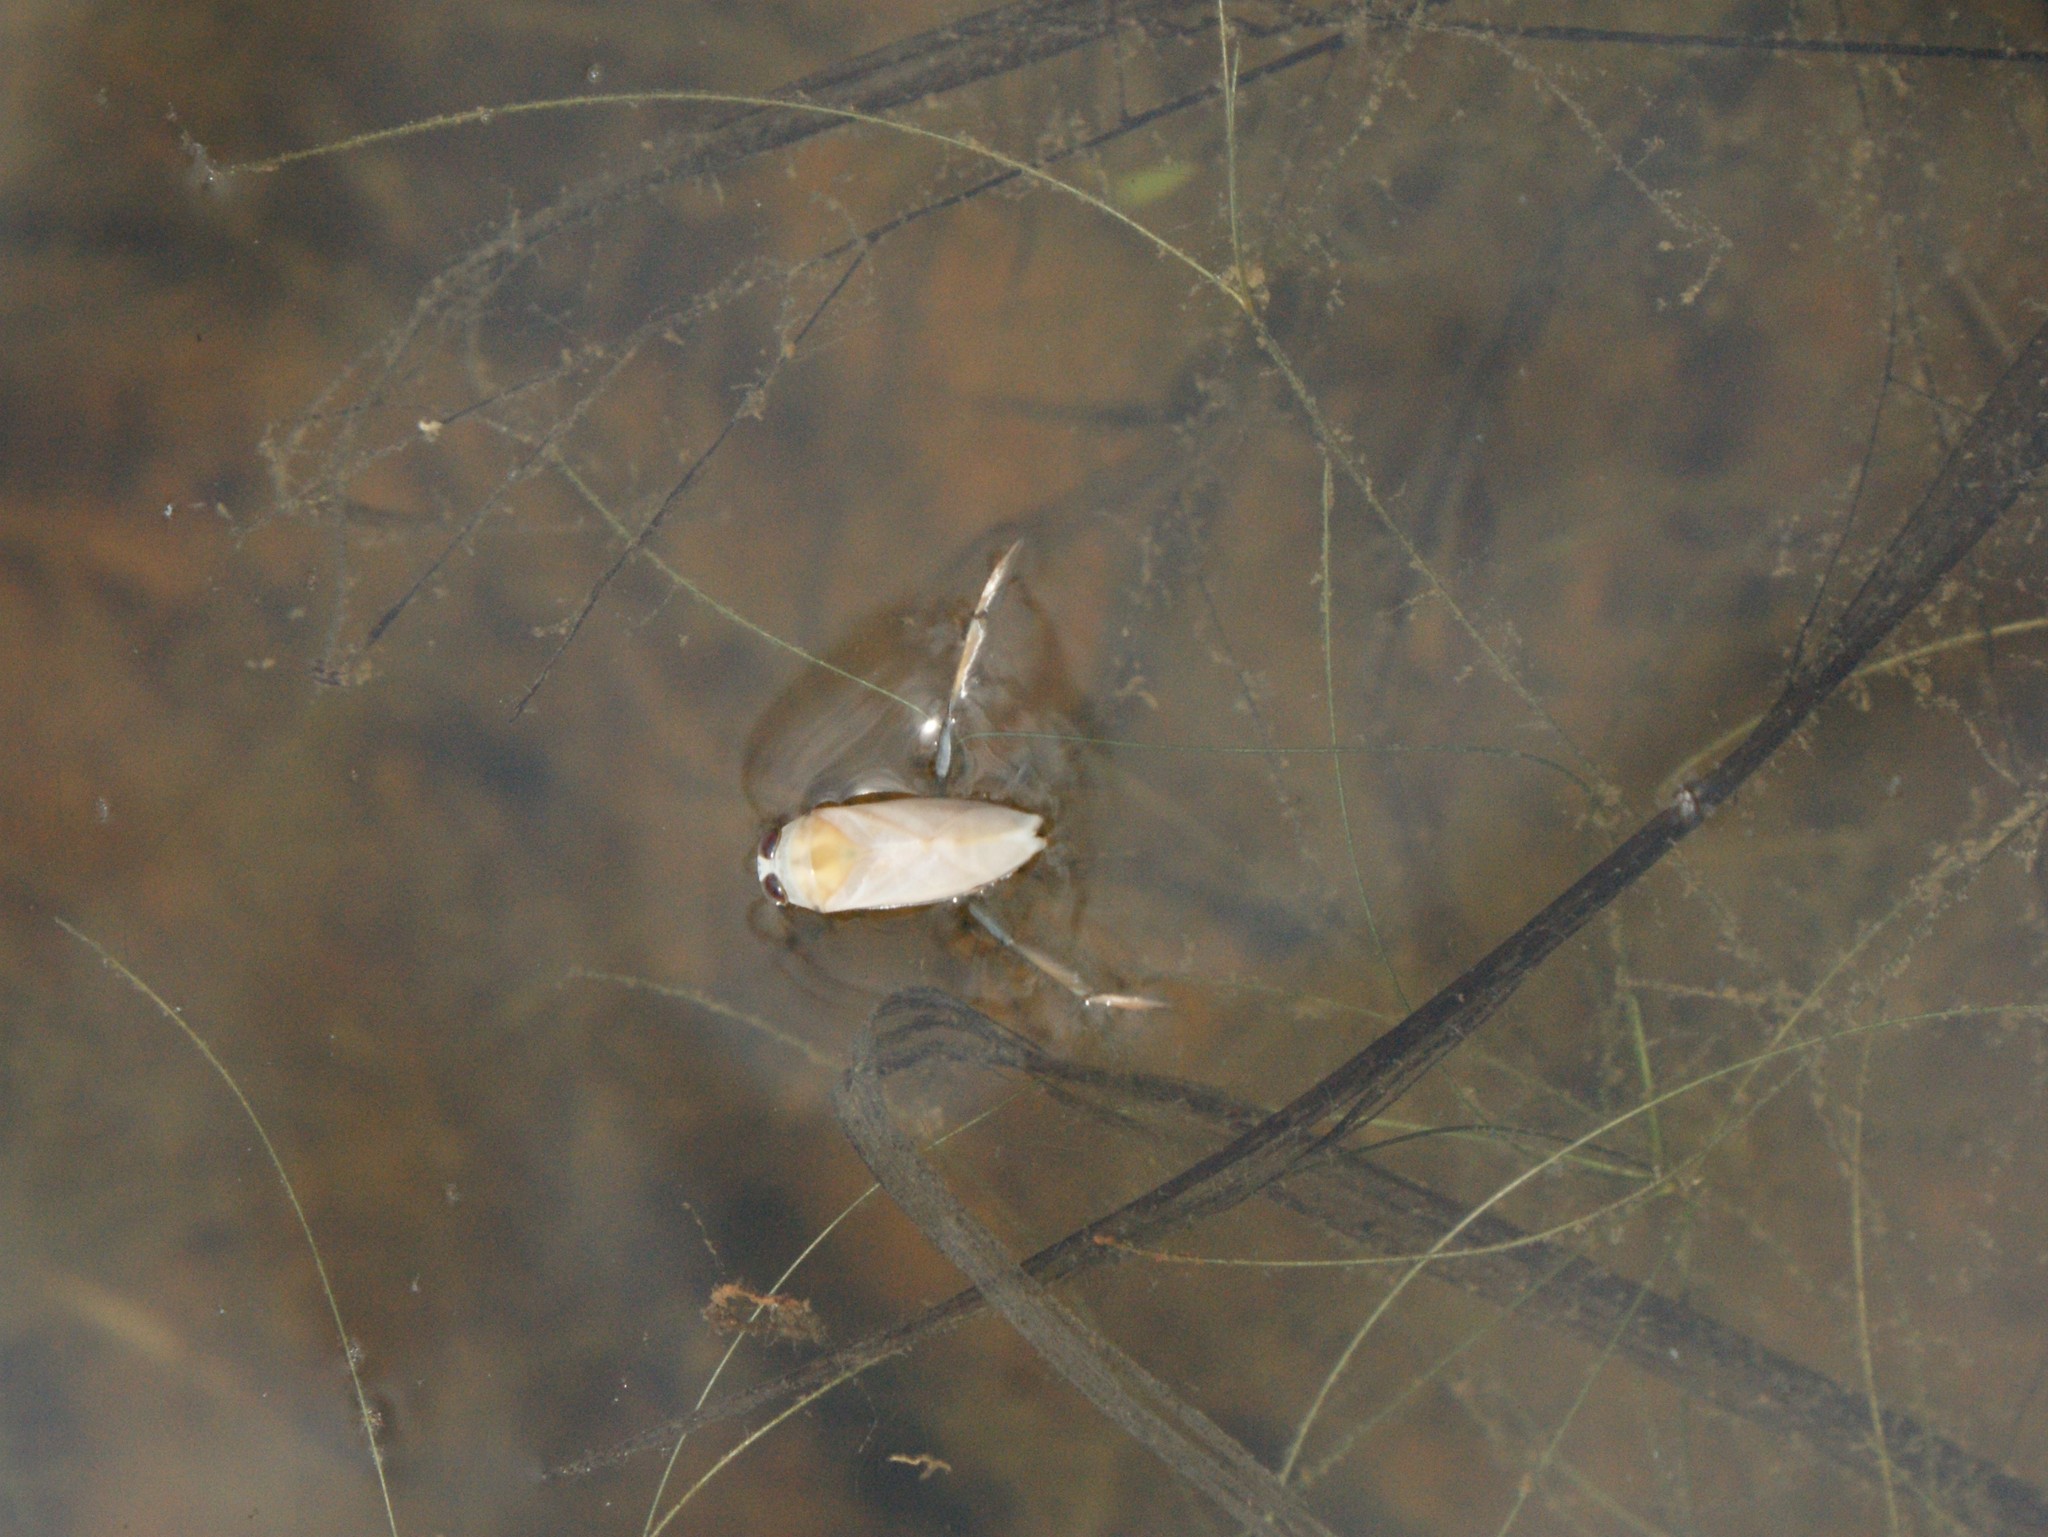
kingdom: Animalia
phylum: Arthropoda
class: Insecta
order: Hemiptera
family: Notonectidae
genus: Notonecta
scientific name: Notonecta
